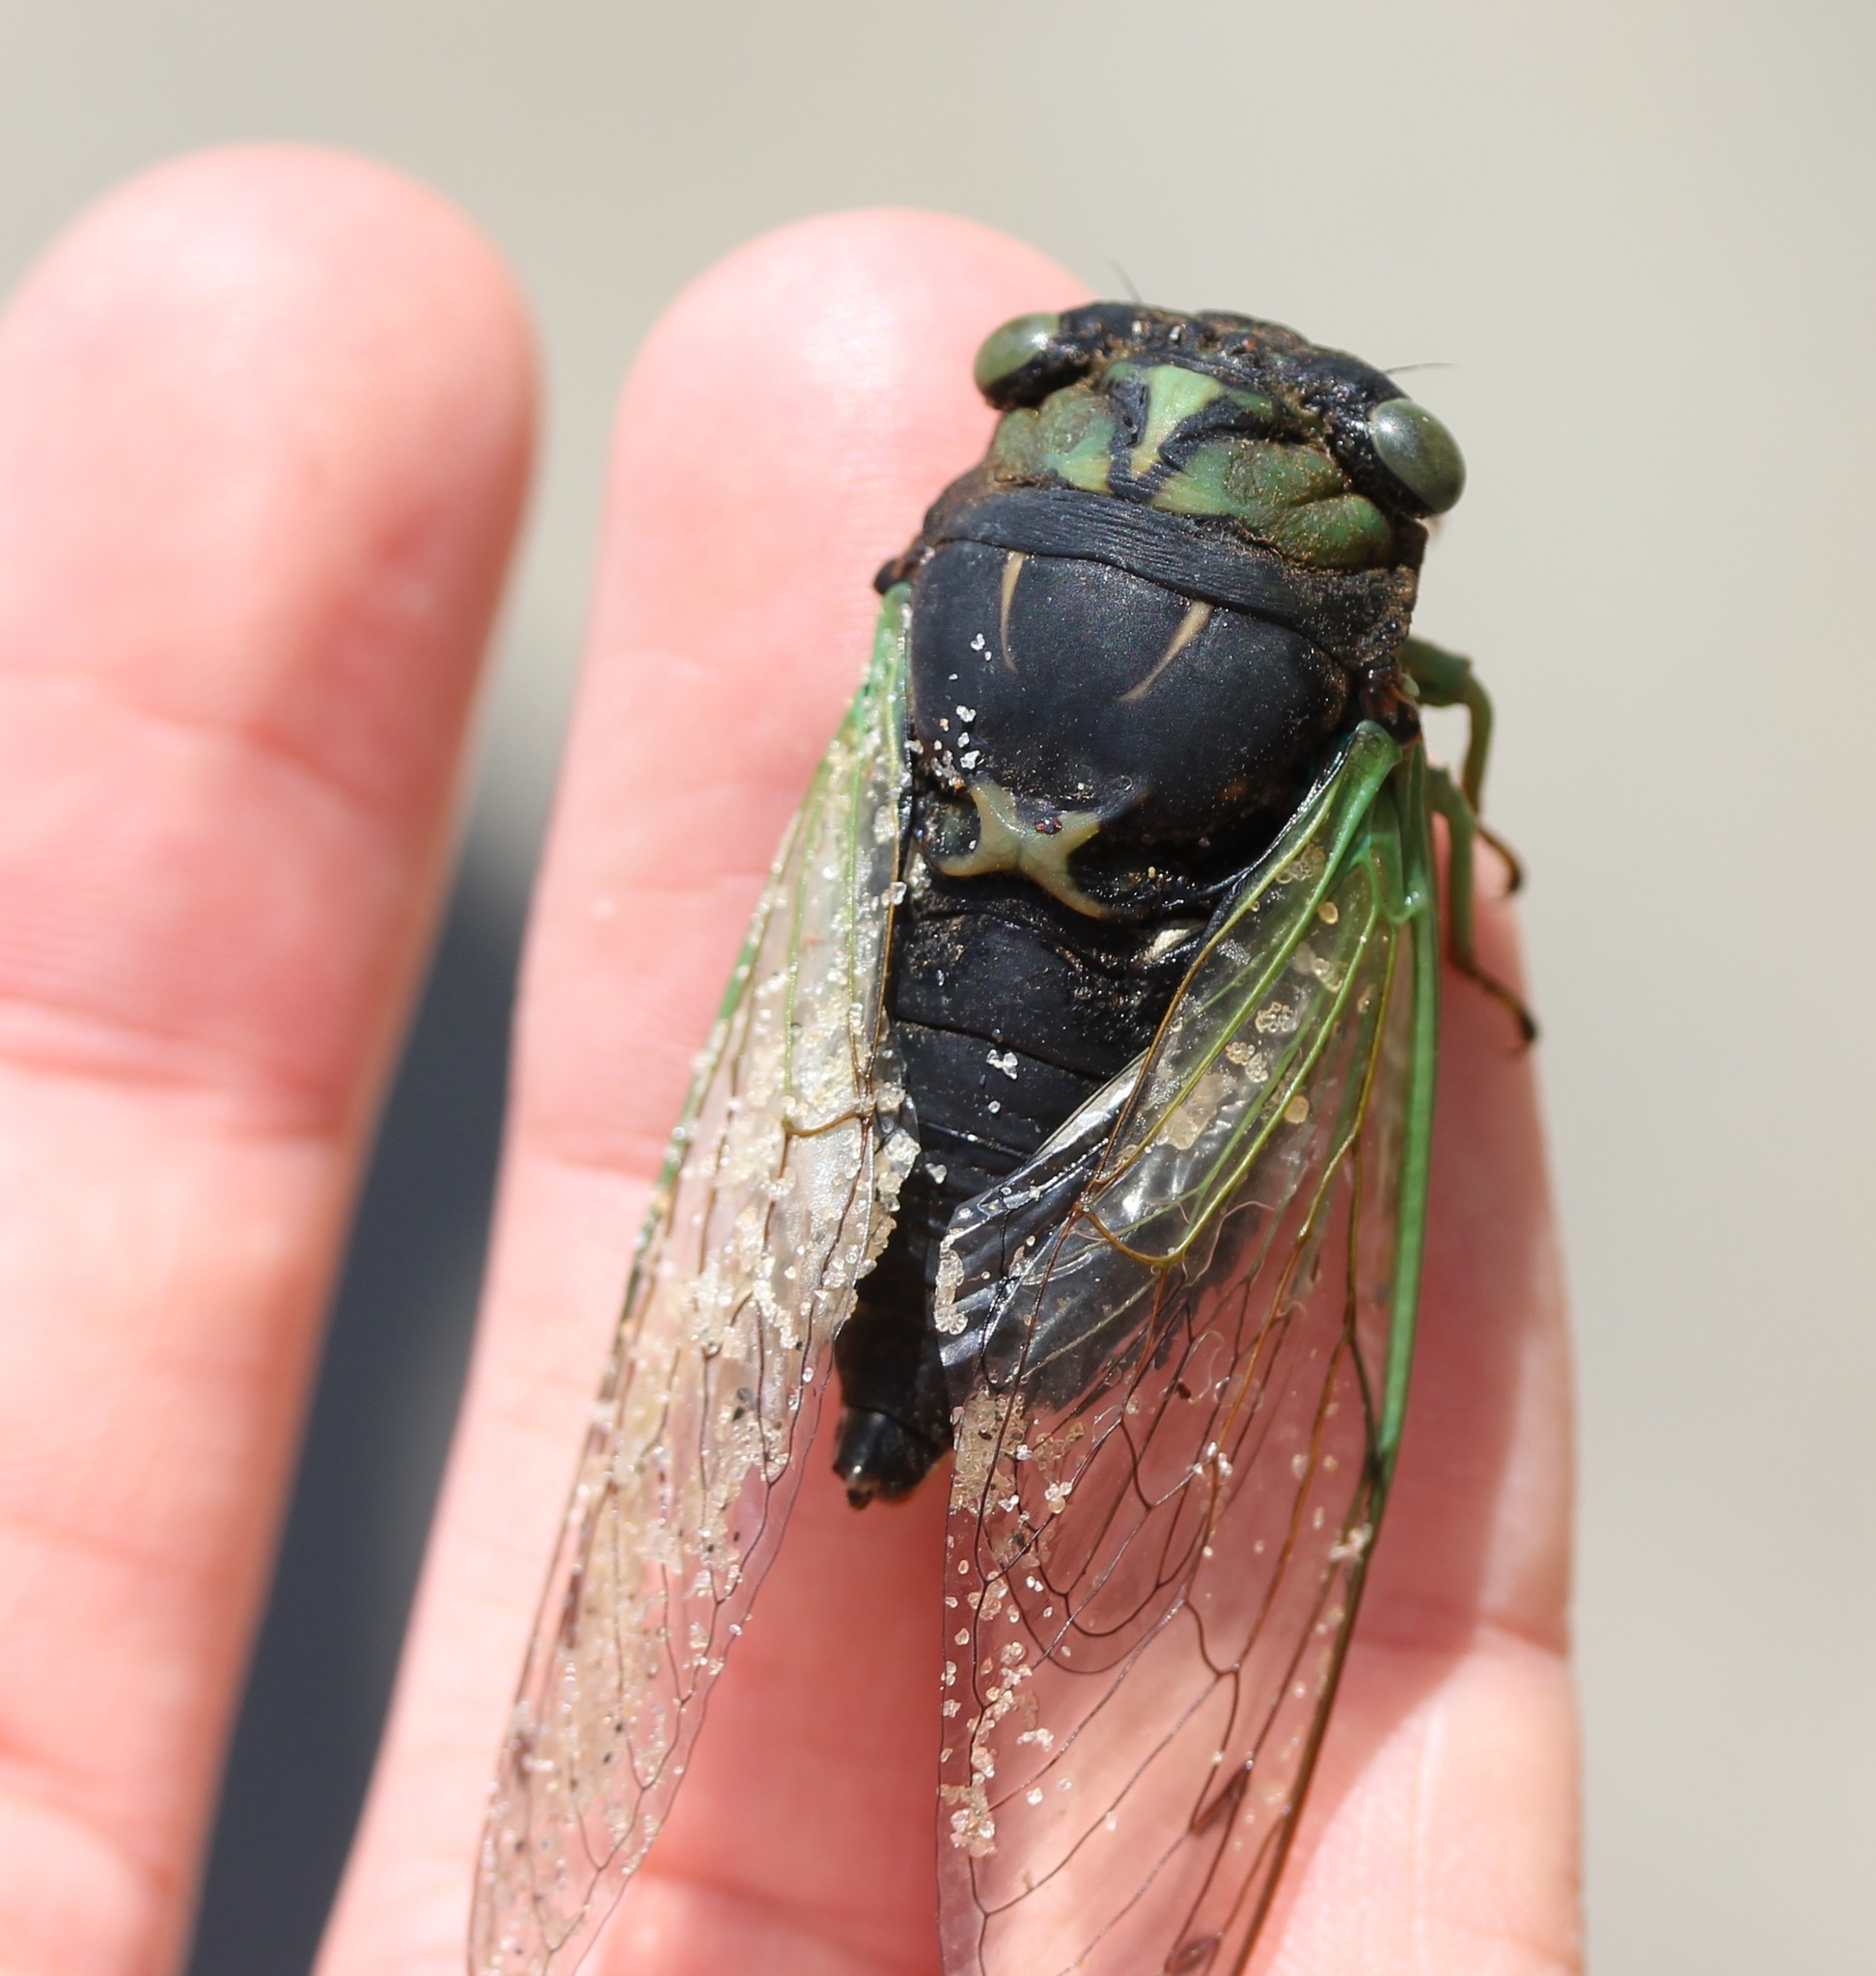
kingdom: Animalia
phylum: Arthropoda
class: Insecta
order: Hemiptera
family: Cicadidae
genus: Neotibicen
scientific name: Neotibicen tibicen
